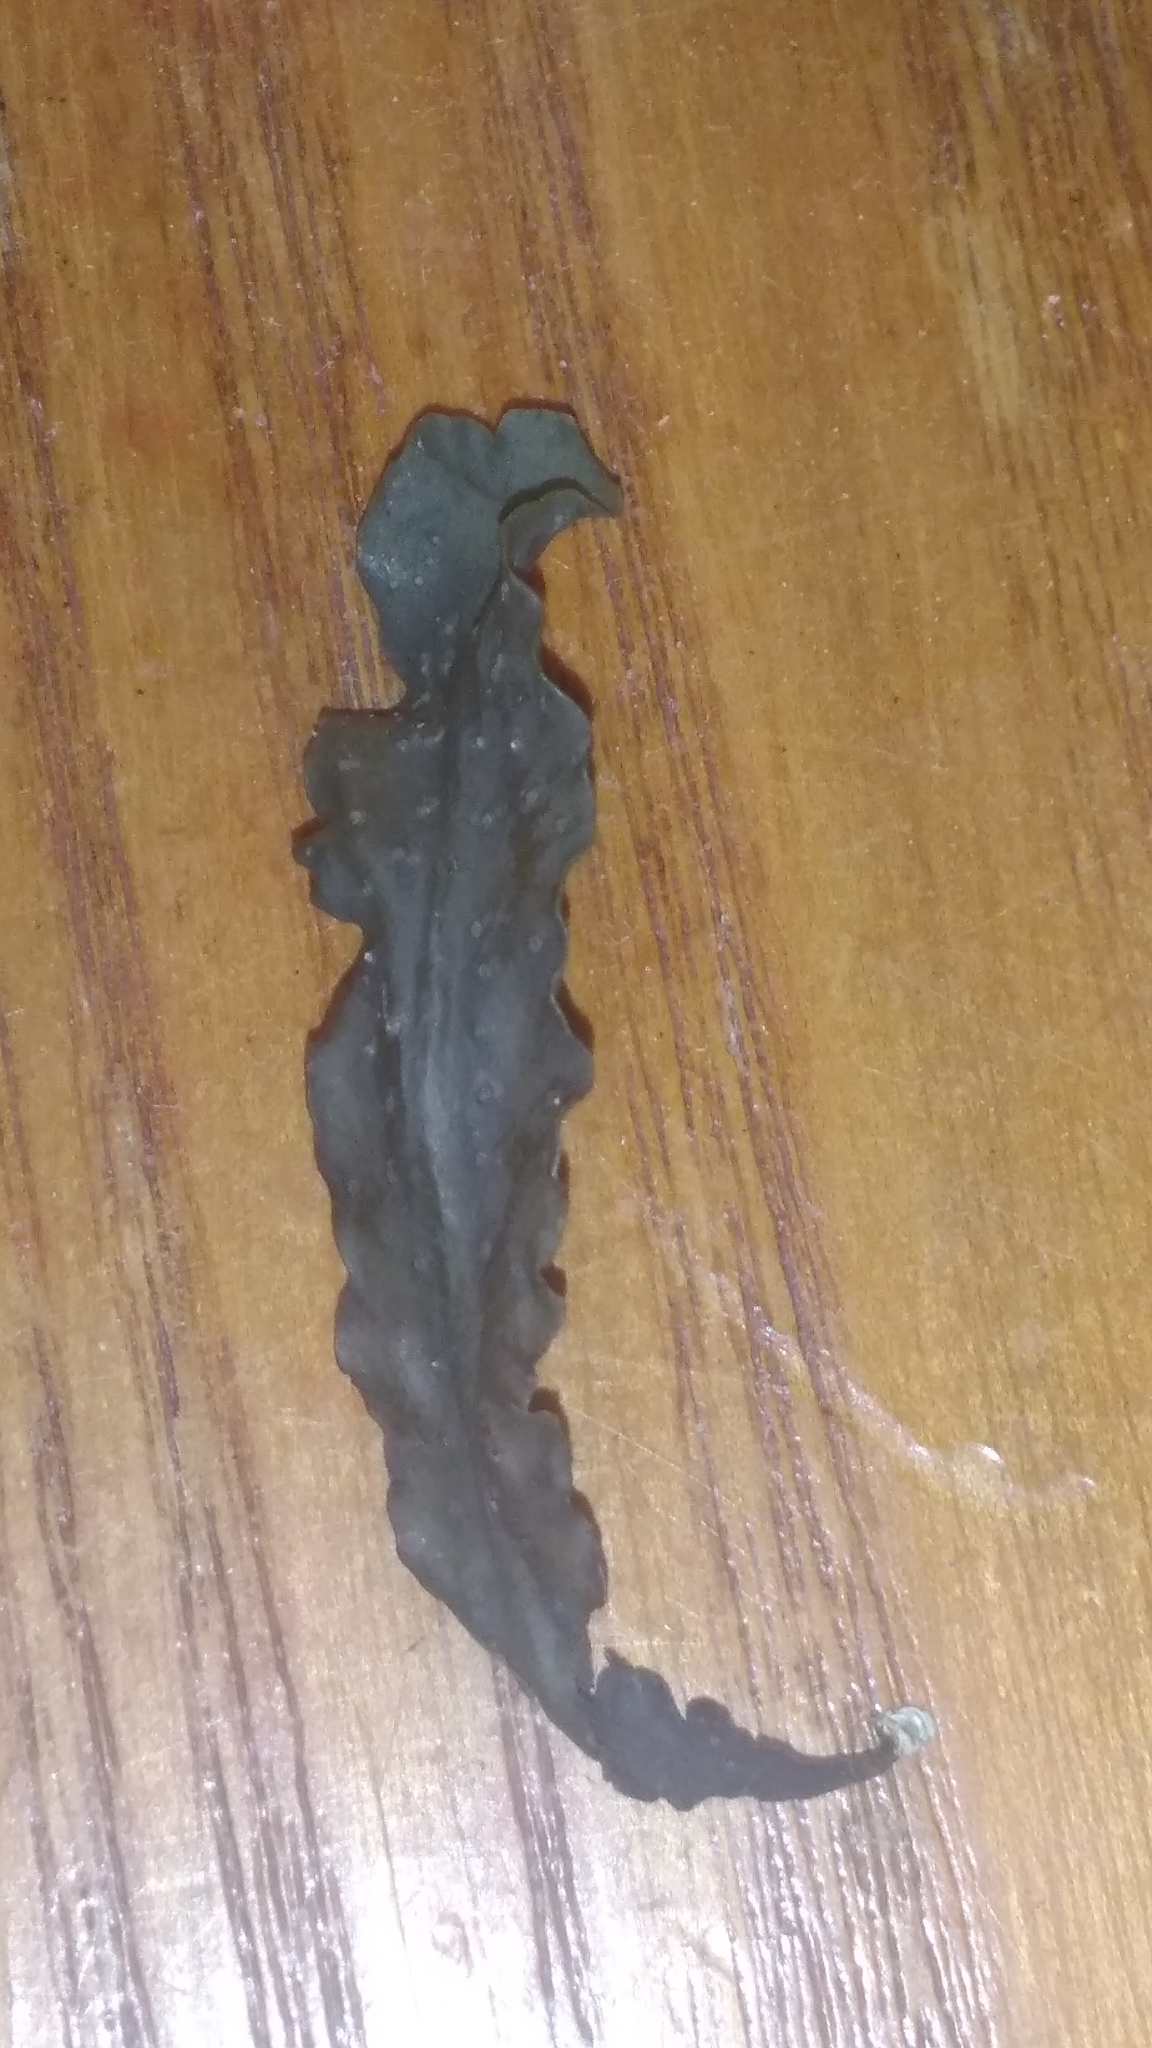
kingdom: Chromista
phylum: Ochrophyta
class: Phaeophyceae
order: Fucales
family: Fucaceae
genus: Fucus
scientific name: Fucus
